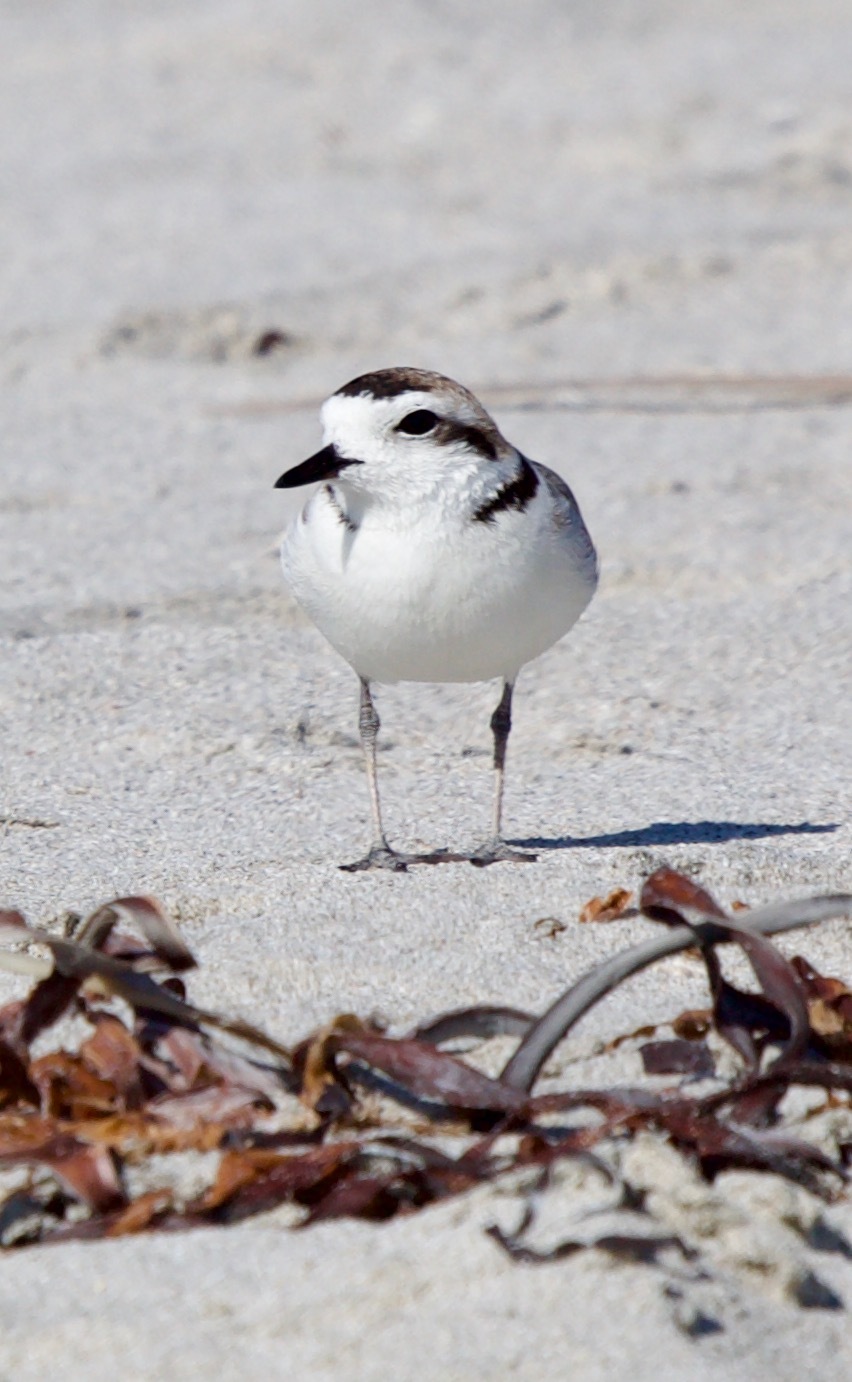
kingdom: Animalia
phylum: Chordata
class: Aves
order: Charadriiformes
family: Charadriidae
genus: Anarhynchus
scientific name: Anarhynchus
